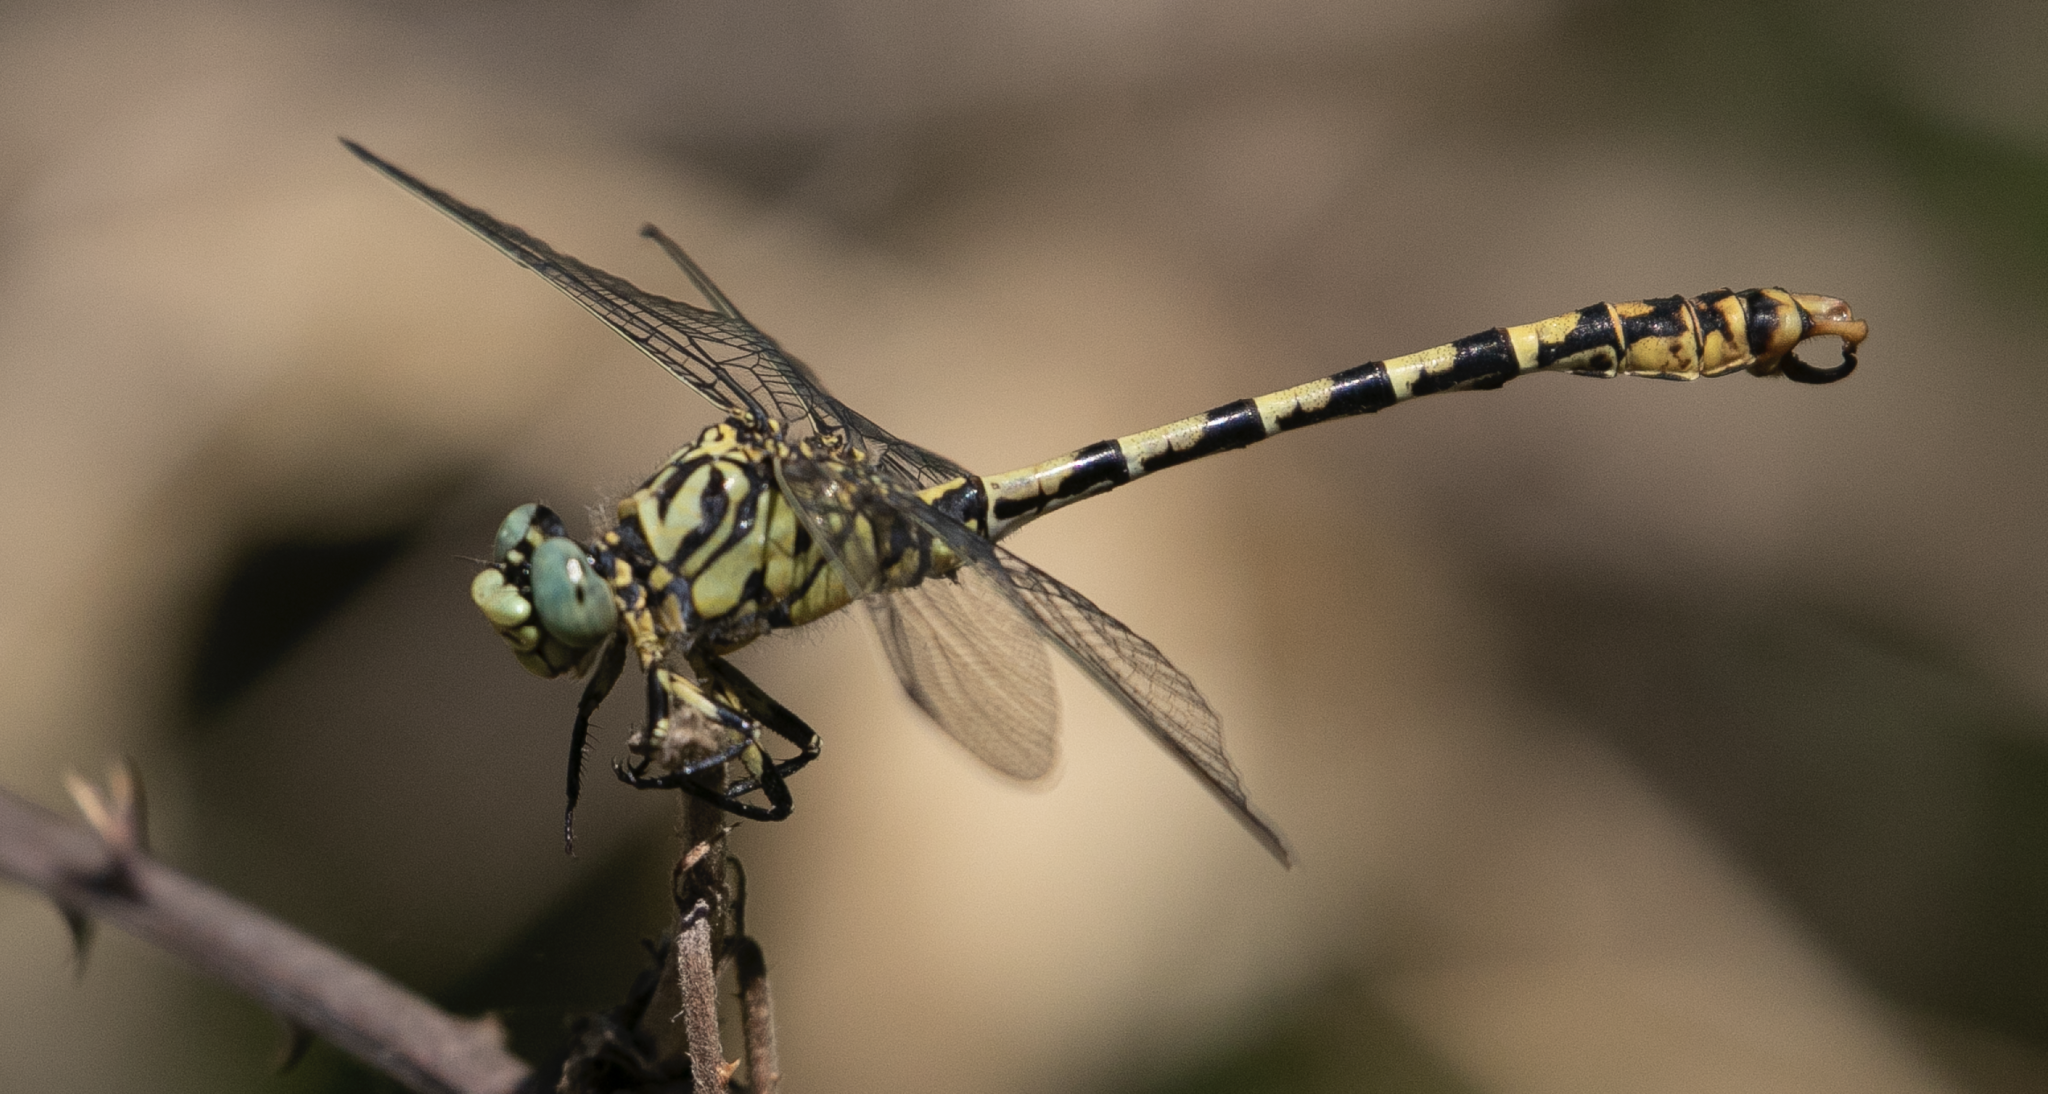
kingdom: Animalia
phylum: Arthropoda
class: Insecta
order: Odonata
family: Gomphidae
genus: Onychogomphus
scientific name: Onychogomphus forcipatus
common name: Small pincertail
